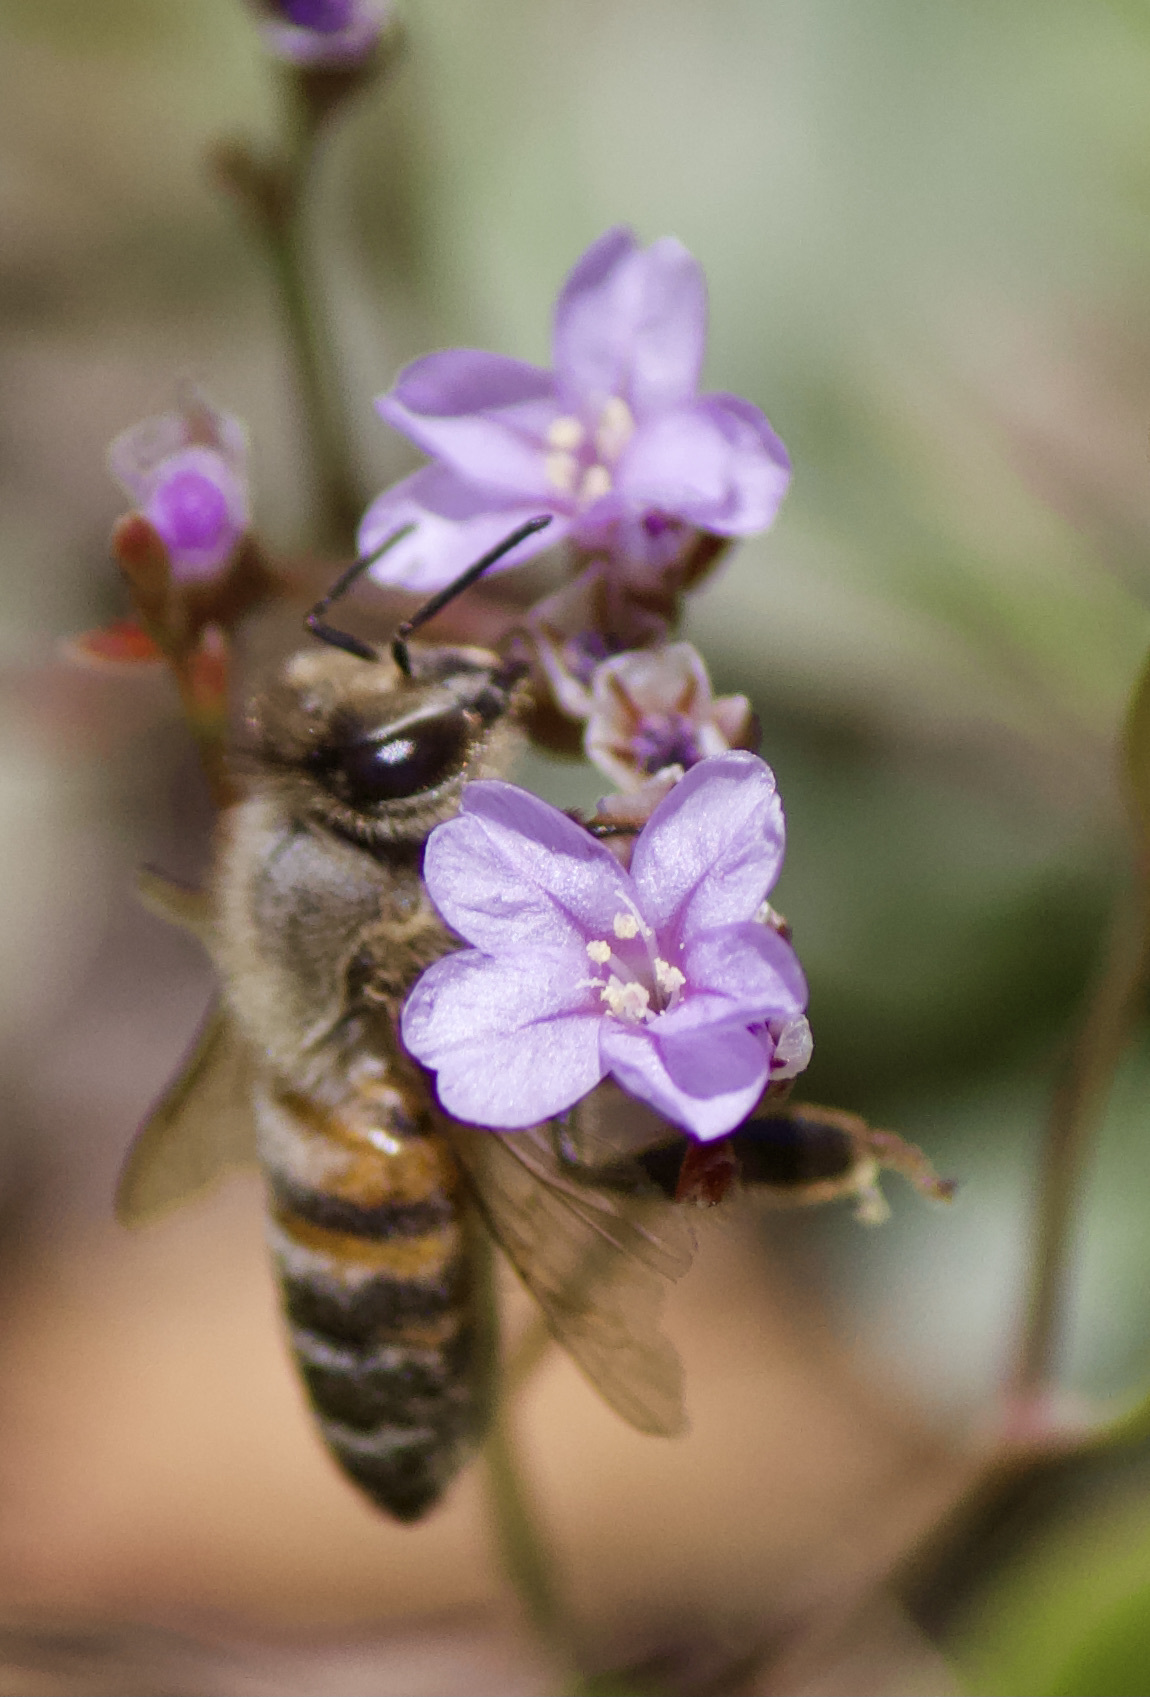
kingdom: Animalia
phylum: Arthropoda
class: Insecta
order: Hymenoptera
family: Apidae
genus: Apis
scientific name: Apis mellifera
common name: Honey bee
